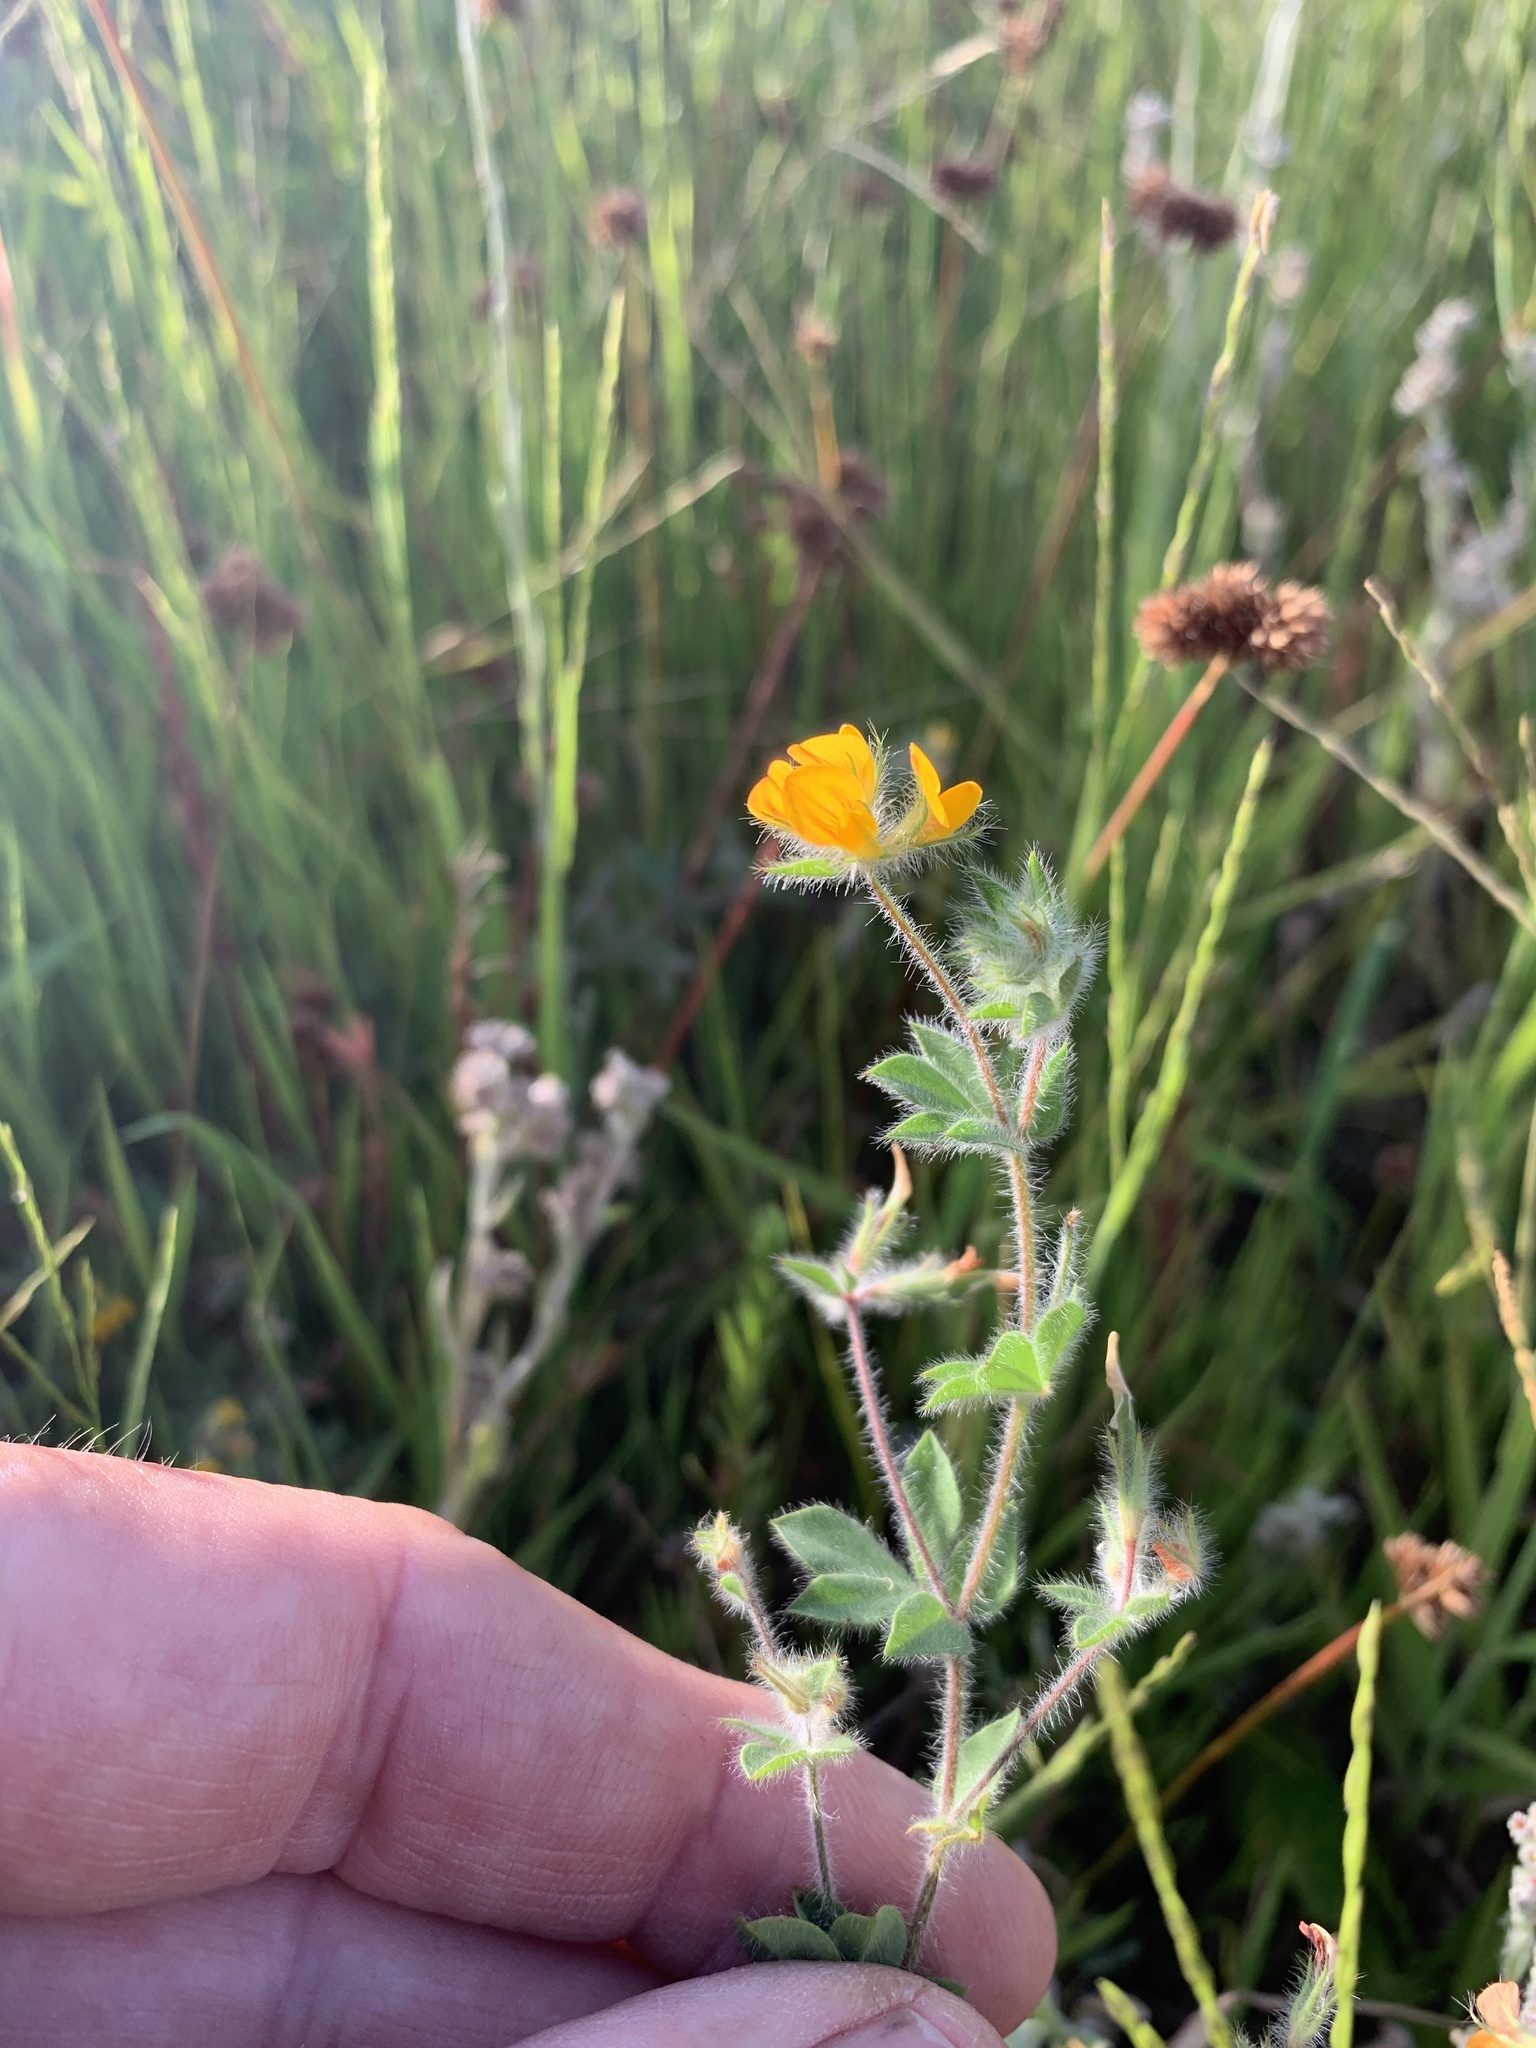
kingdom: Plantae
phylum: Tracheophyta
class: Magnoliopsida
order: Fabales
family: Fabaceae
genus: Lotus
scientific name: Lotus subbiflorus
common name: Hairy bird's-foot trefoil
